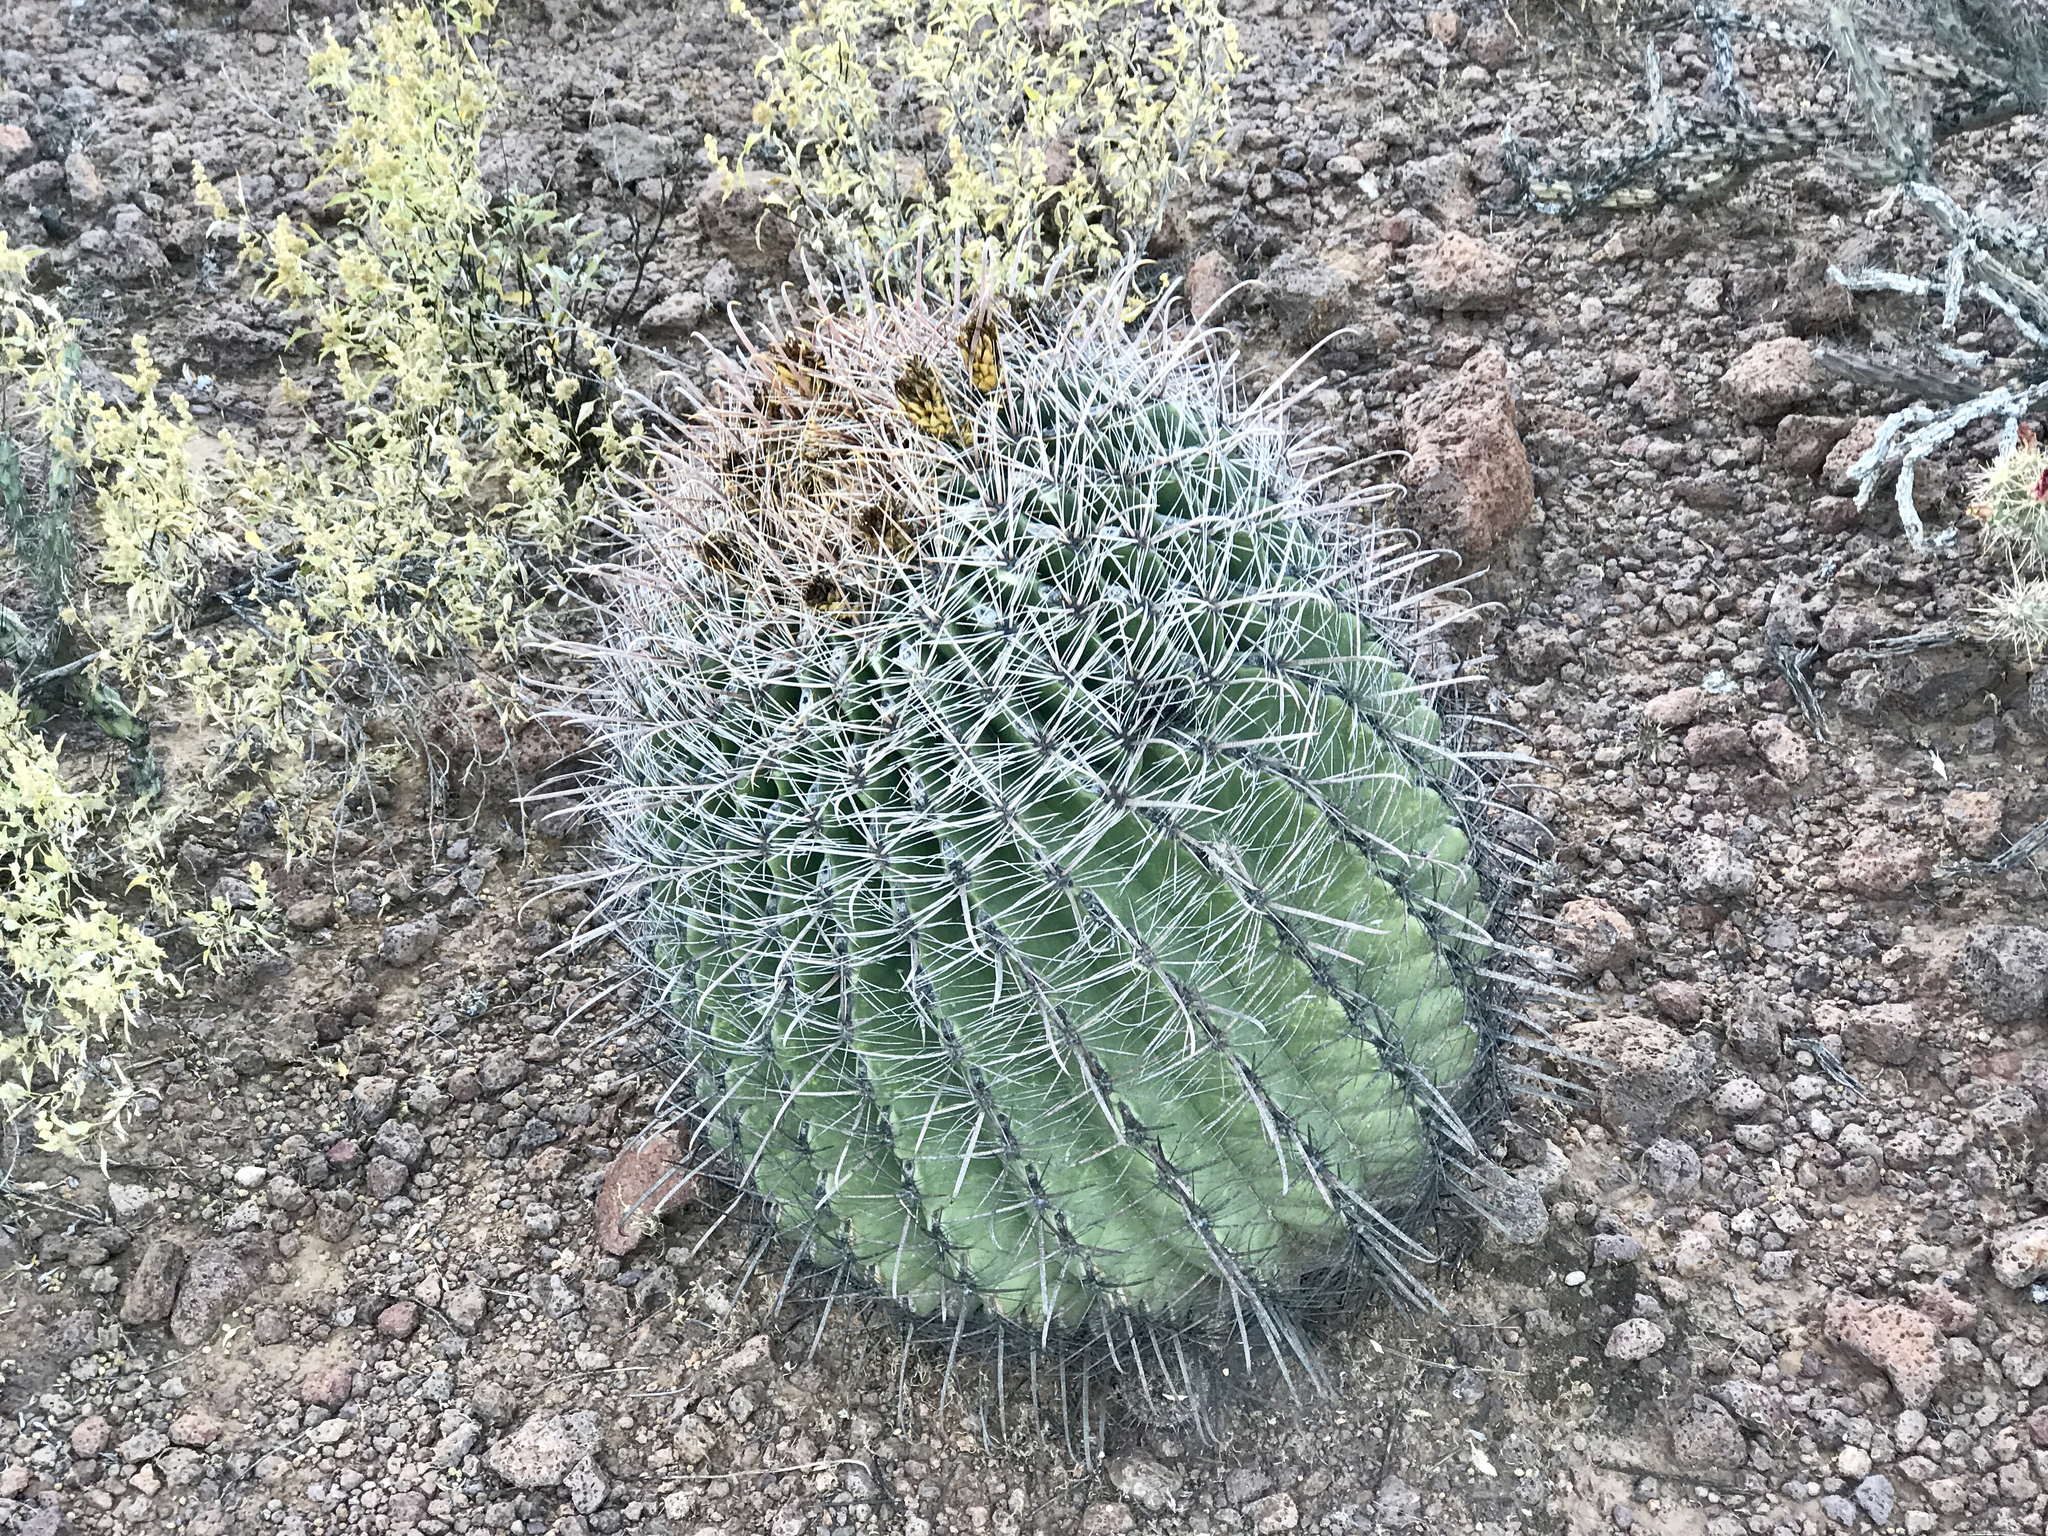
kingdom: Plantae
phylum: Tracheophyta
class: Magnoliopsida
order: Caryophyllales
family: Cactaceae
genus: Ferocactus
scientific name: Ferocactus wislizeni
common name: Candy barrel cactus
